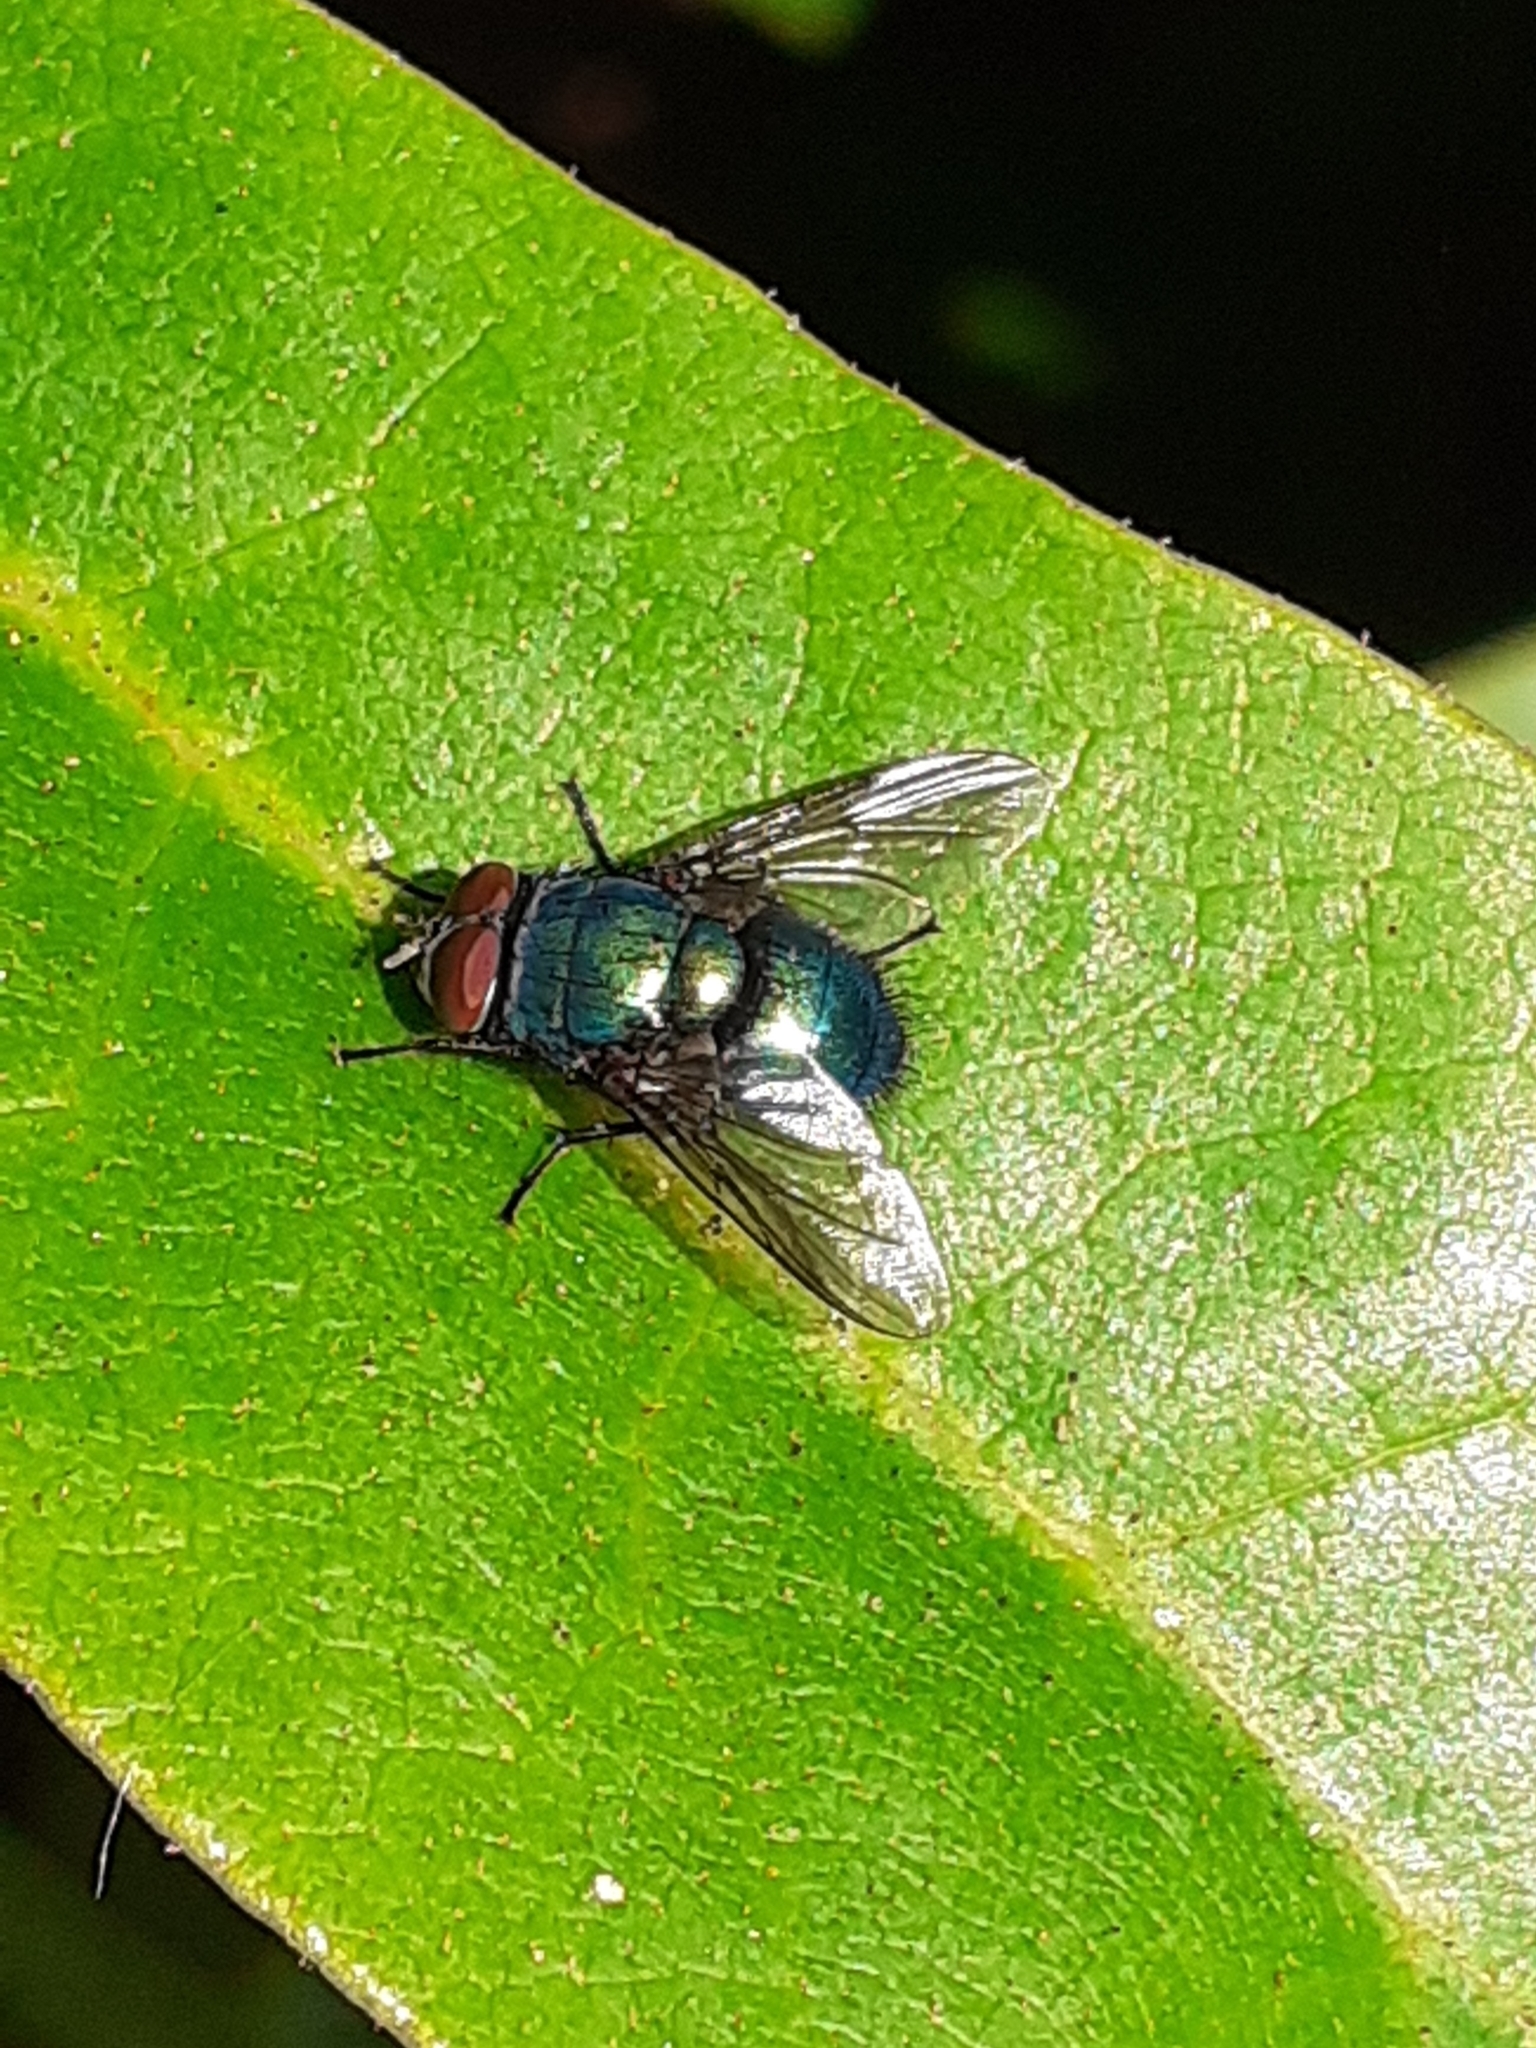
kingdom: Animalia
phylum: Arthropoda
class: Insecta
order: Diptera
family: Calliphoridae
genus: Lucilia
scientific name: Lucilia
